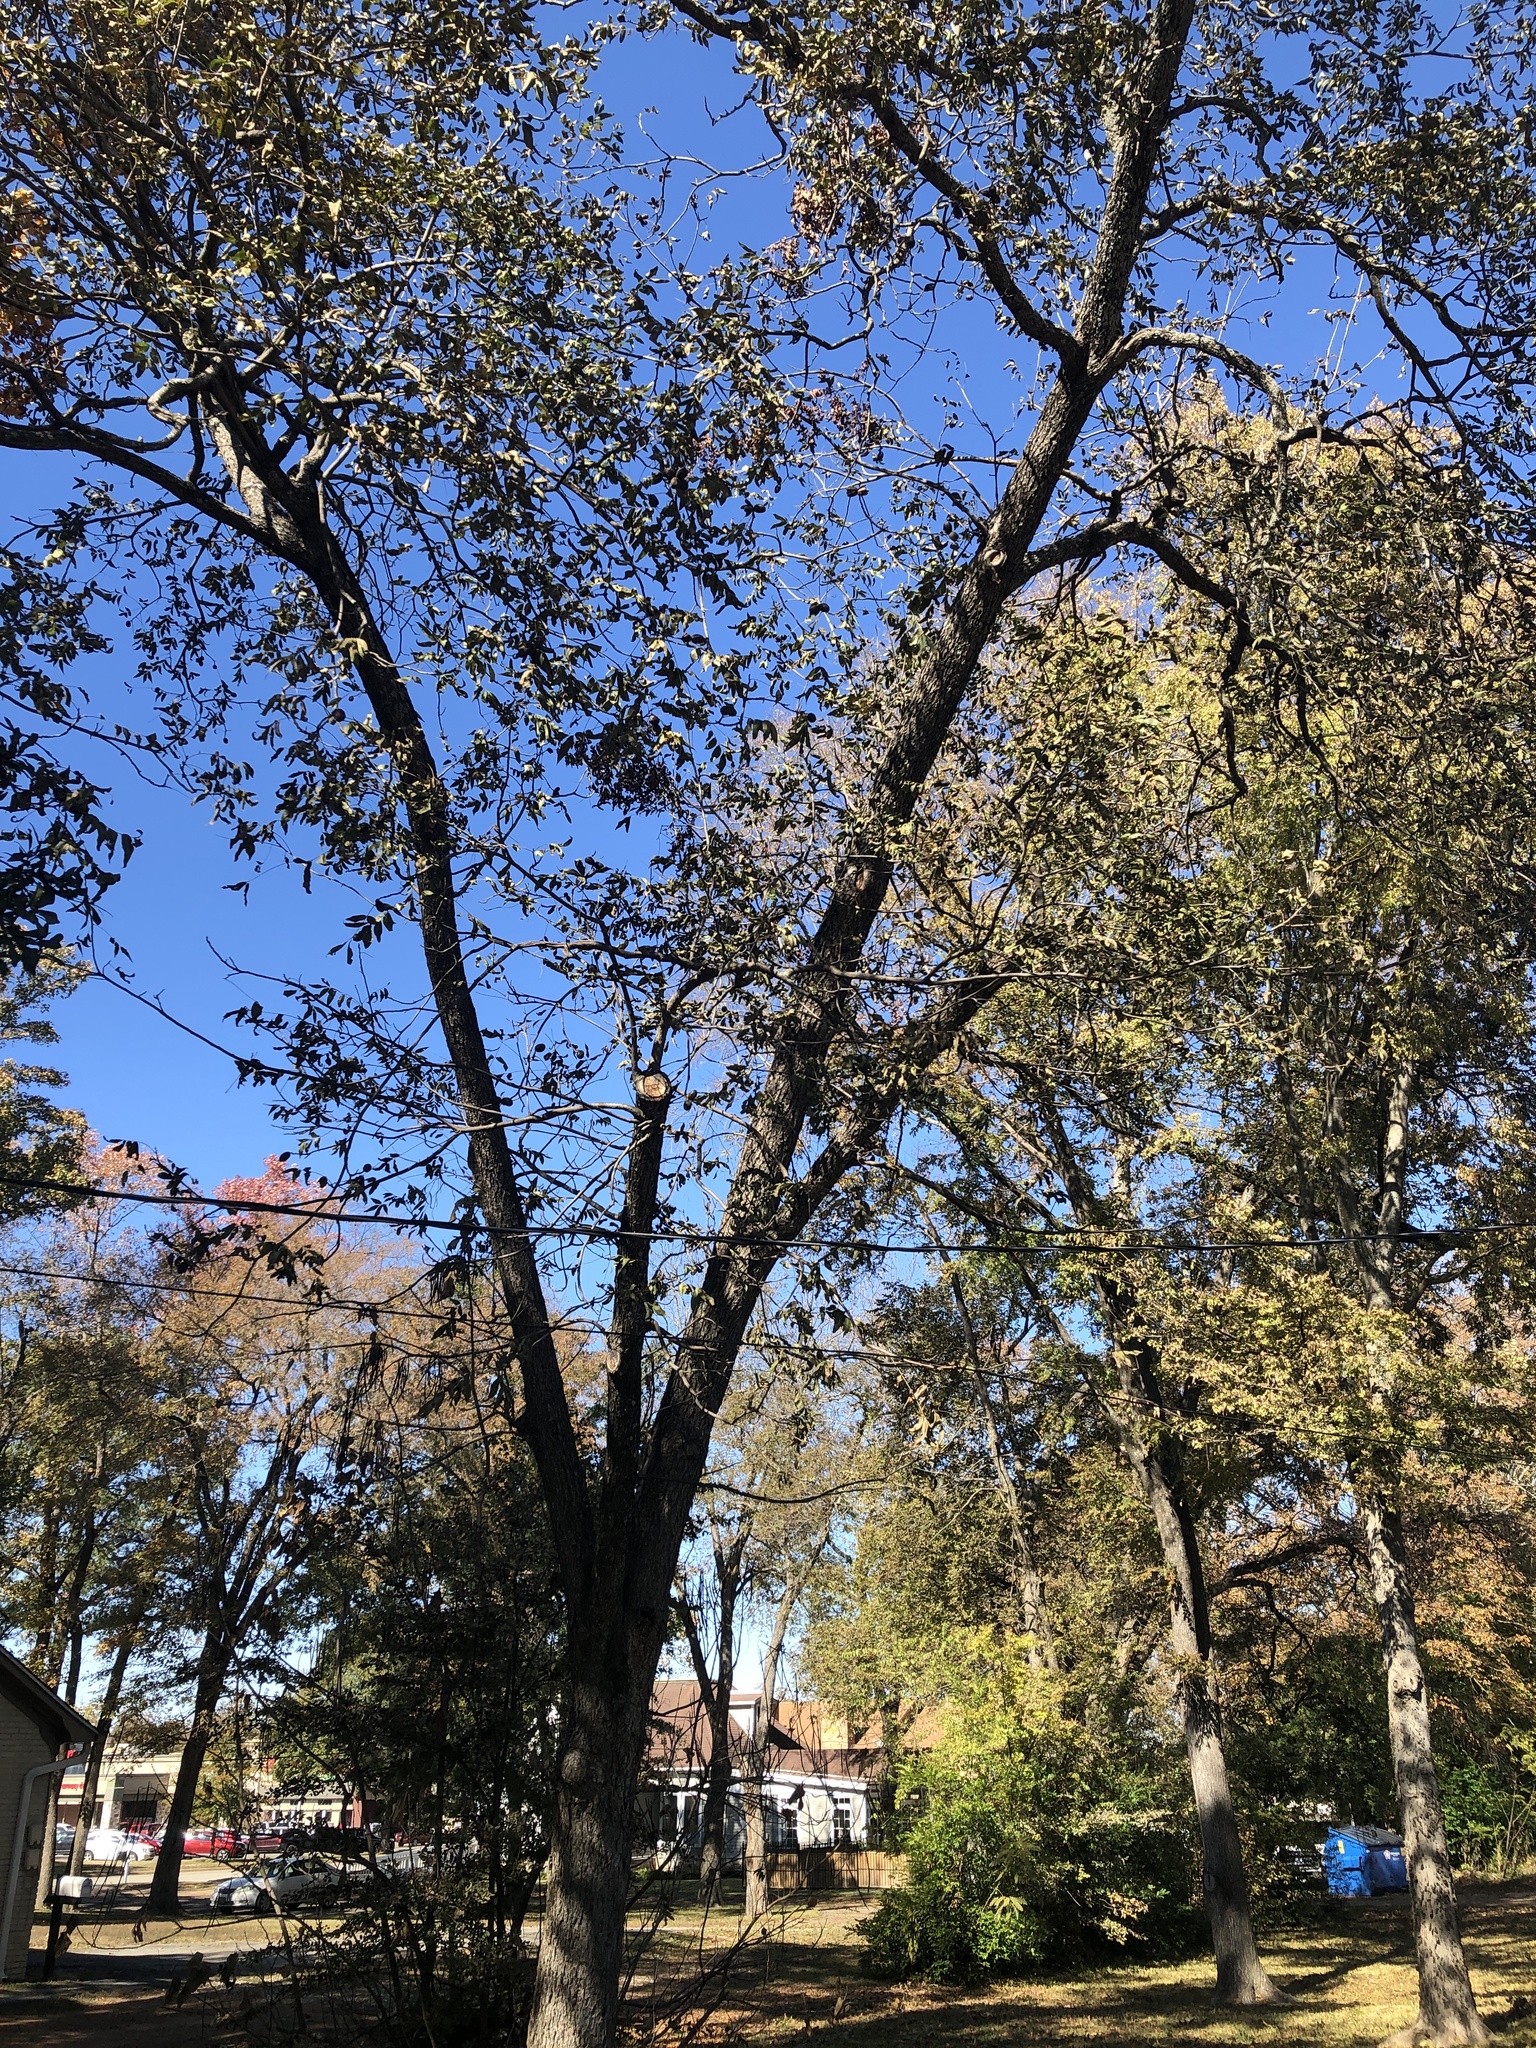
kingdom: Plantae
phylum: Tracheophyta
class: Magnoliopsida
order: Fagales
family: Juglandaceae
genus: Carya
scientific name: Carya illinoinensis
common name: Pecan
